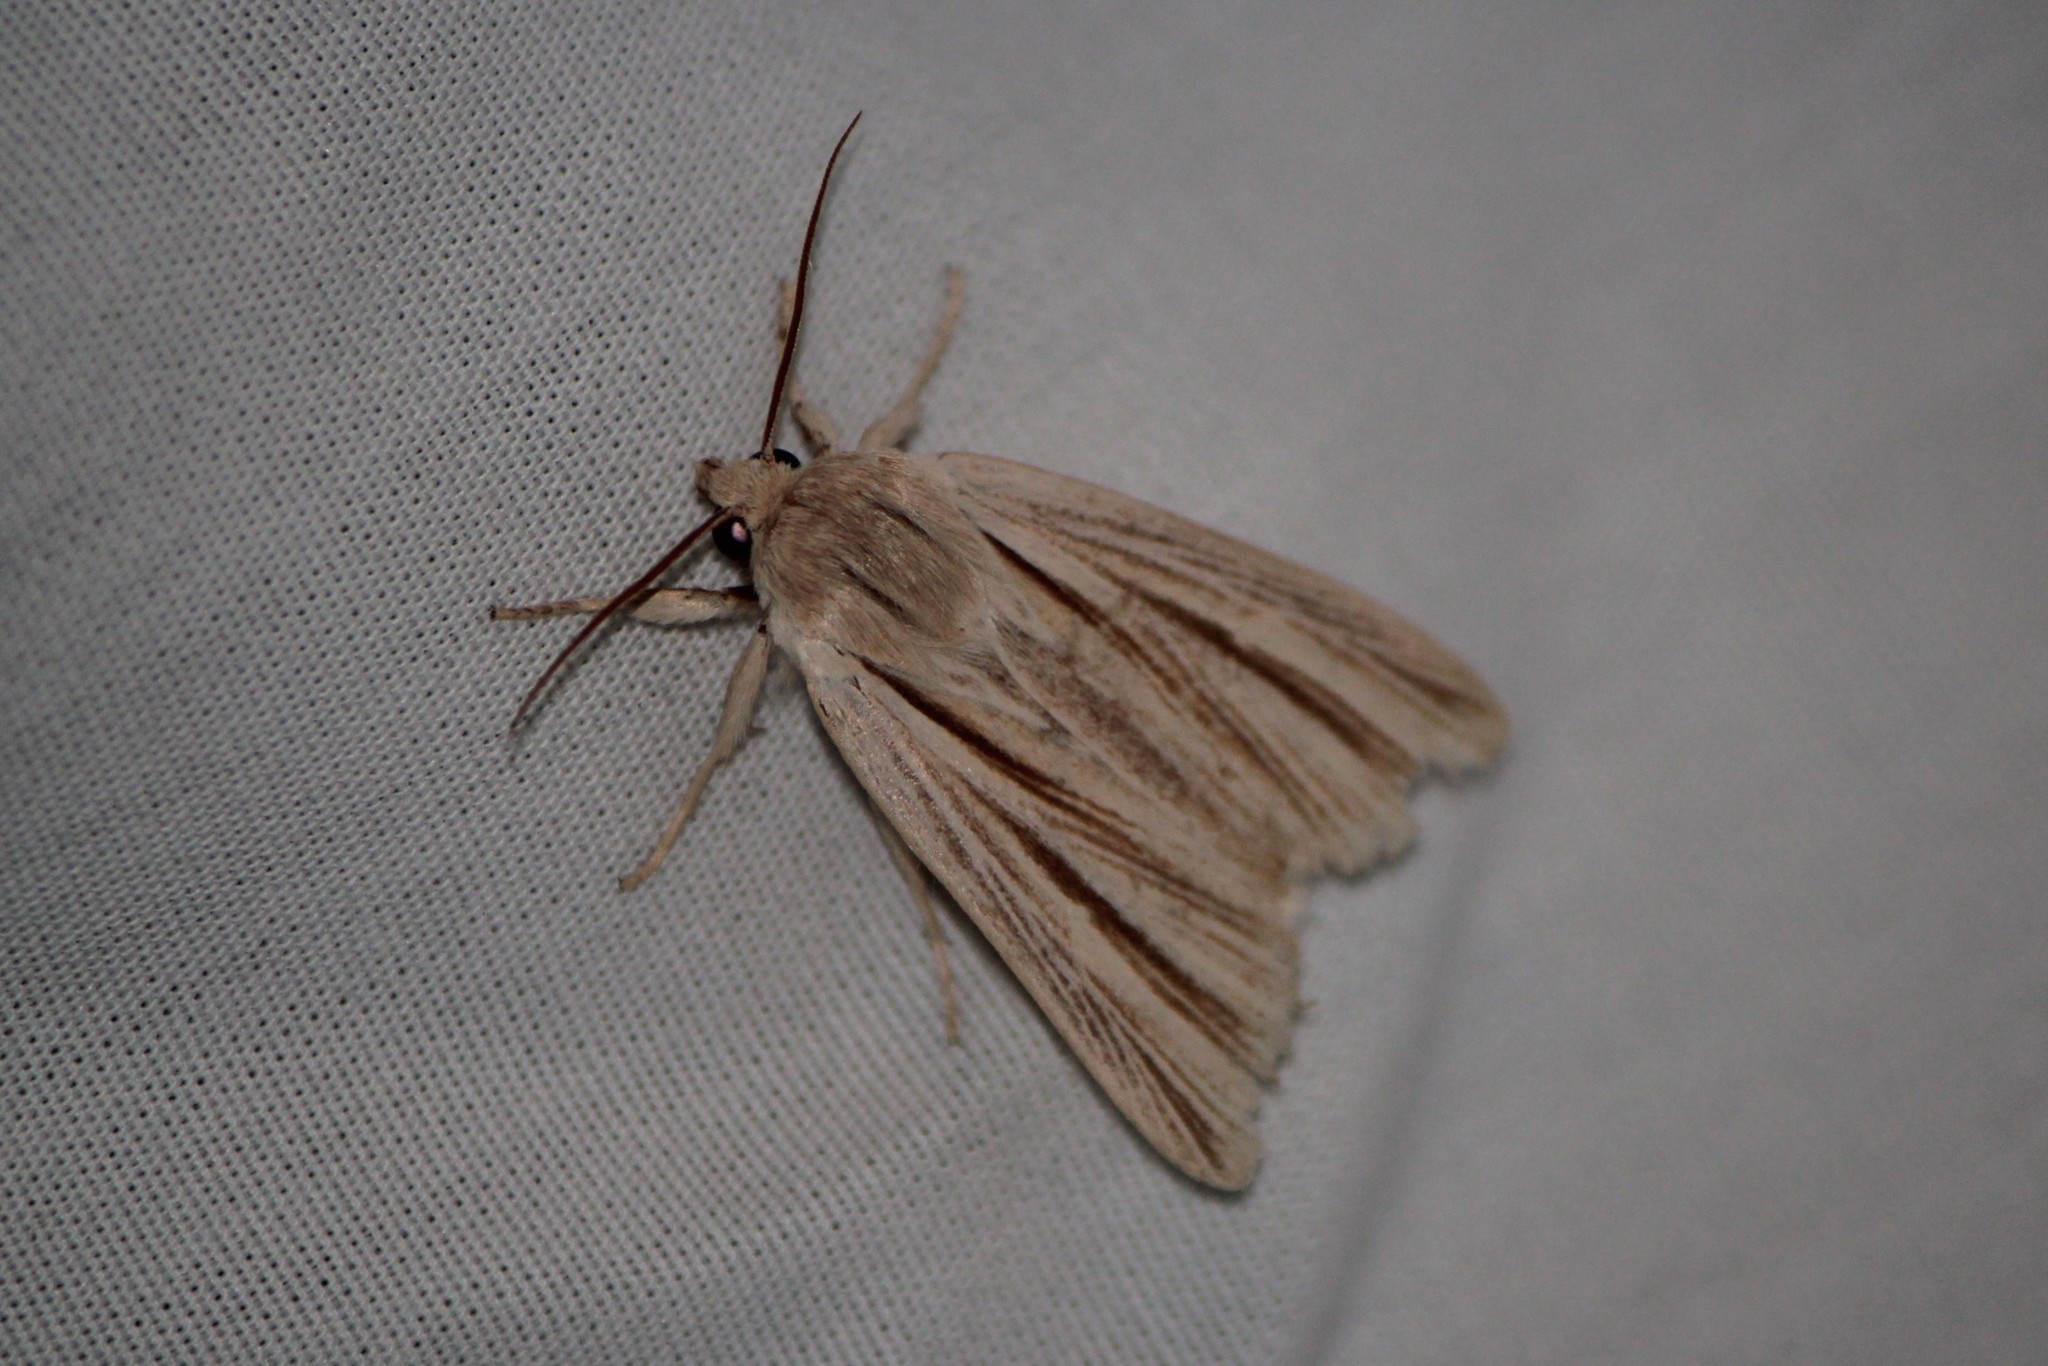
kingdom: Animalia
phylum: Arthropoda
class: Insecta
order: Lepidoptera
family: Noctuidae
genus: Acronicta
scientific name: Acronicta insularis
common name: Henry's marsh moth
